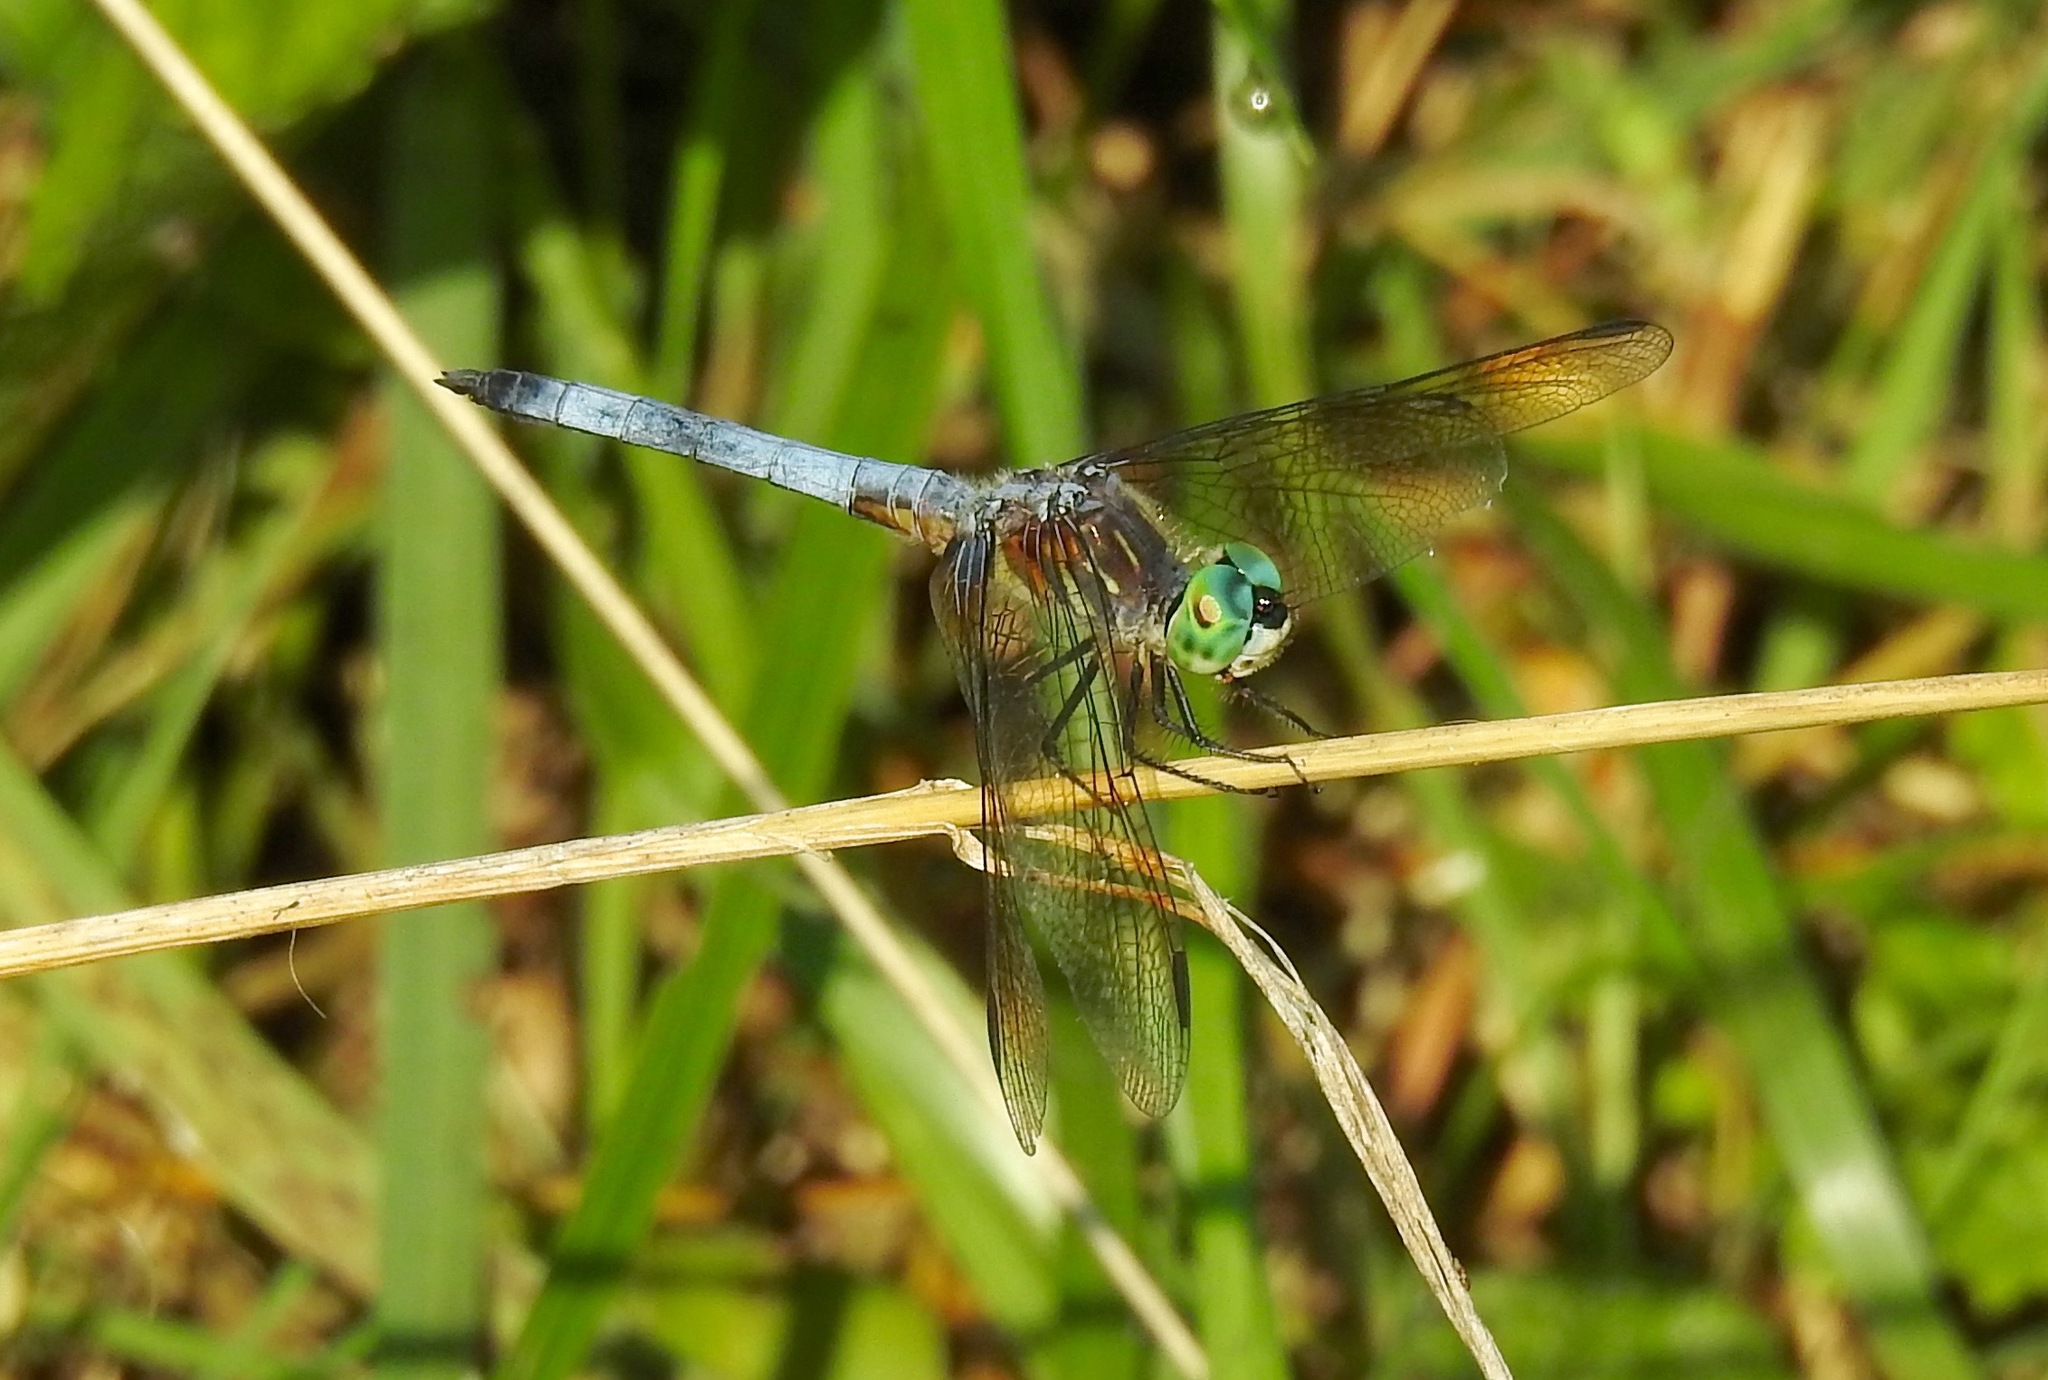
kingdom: Animalia
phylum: Arthropoda
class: Insecta
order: Odonata
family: Libellulidae
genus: Pachydiplax
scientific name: Pachydiplax longipennis
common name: Blue dasher
